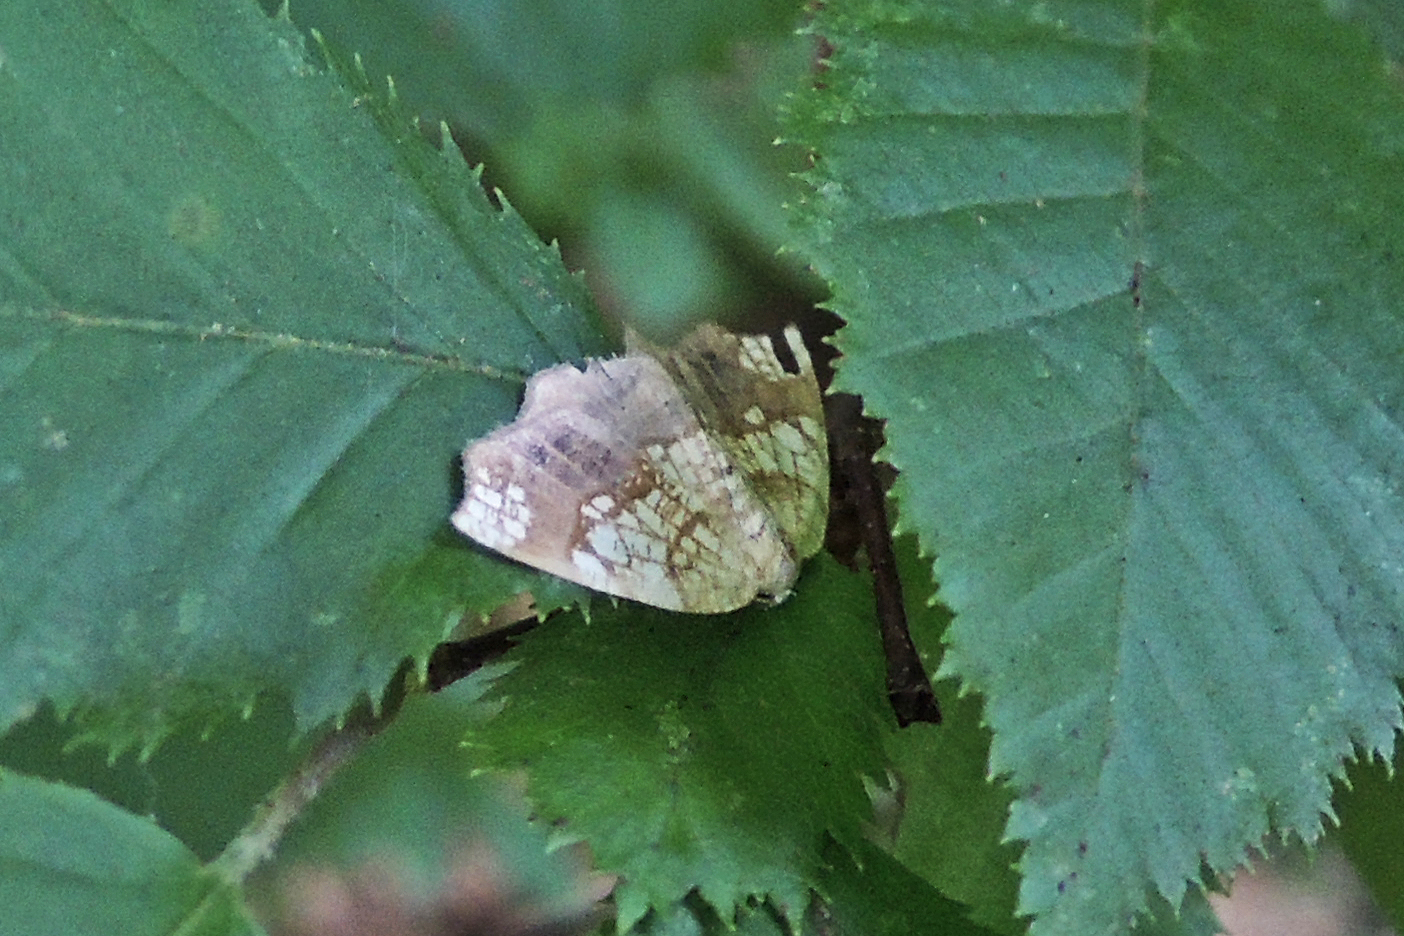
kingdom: Animalia
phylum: Arthropoda
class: Insecta
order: Lepidoptera
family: Geometridae
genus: Nematocampa
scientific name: Nematocampa resistaria
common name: Horned spanworm moth
